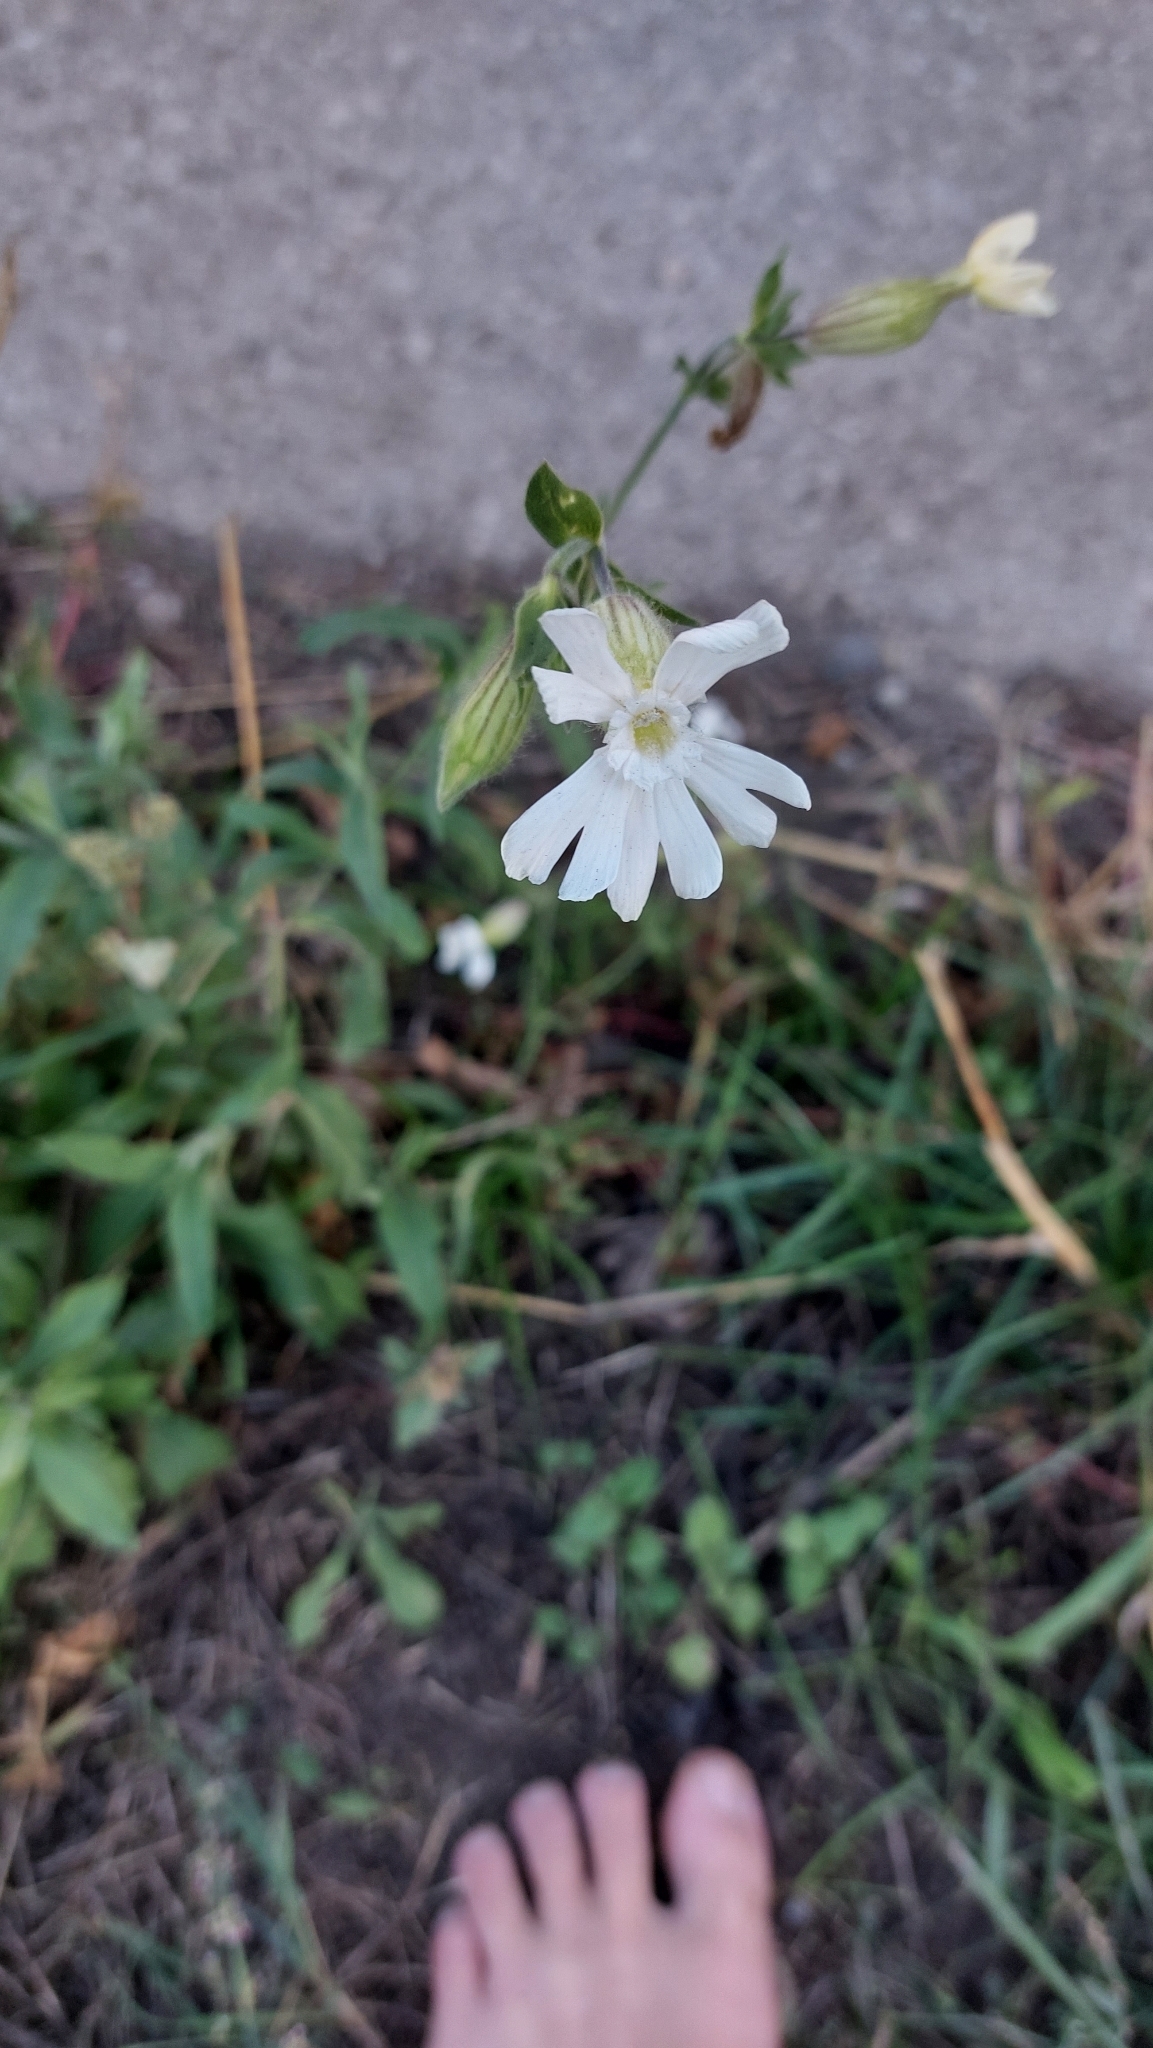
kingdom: Plantae
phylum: Tracheophyta
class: Magnoliopsida
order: Caryophyllales
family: Caryophyllaceae
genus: Silene
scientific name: Silene latifolia
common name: White campion
